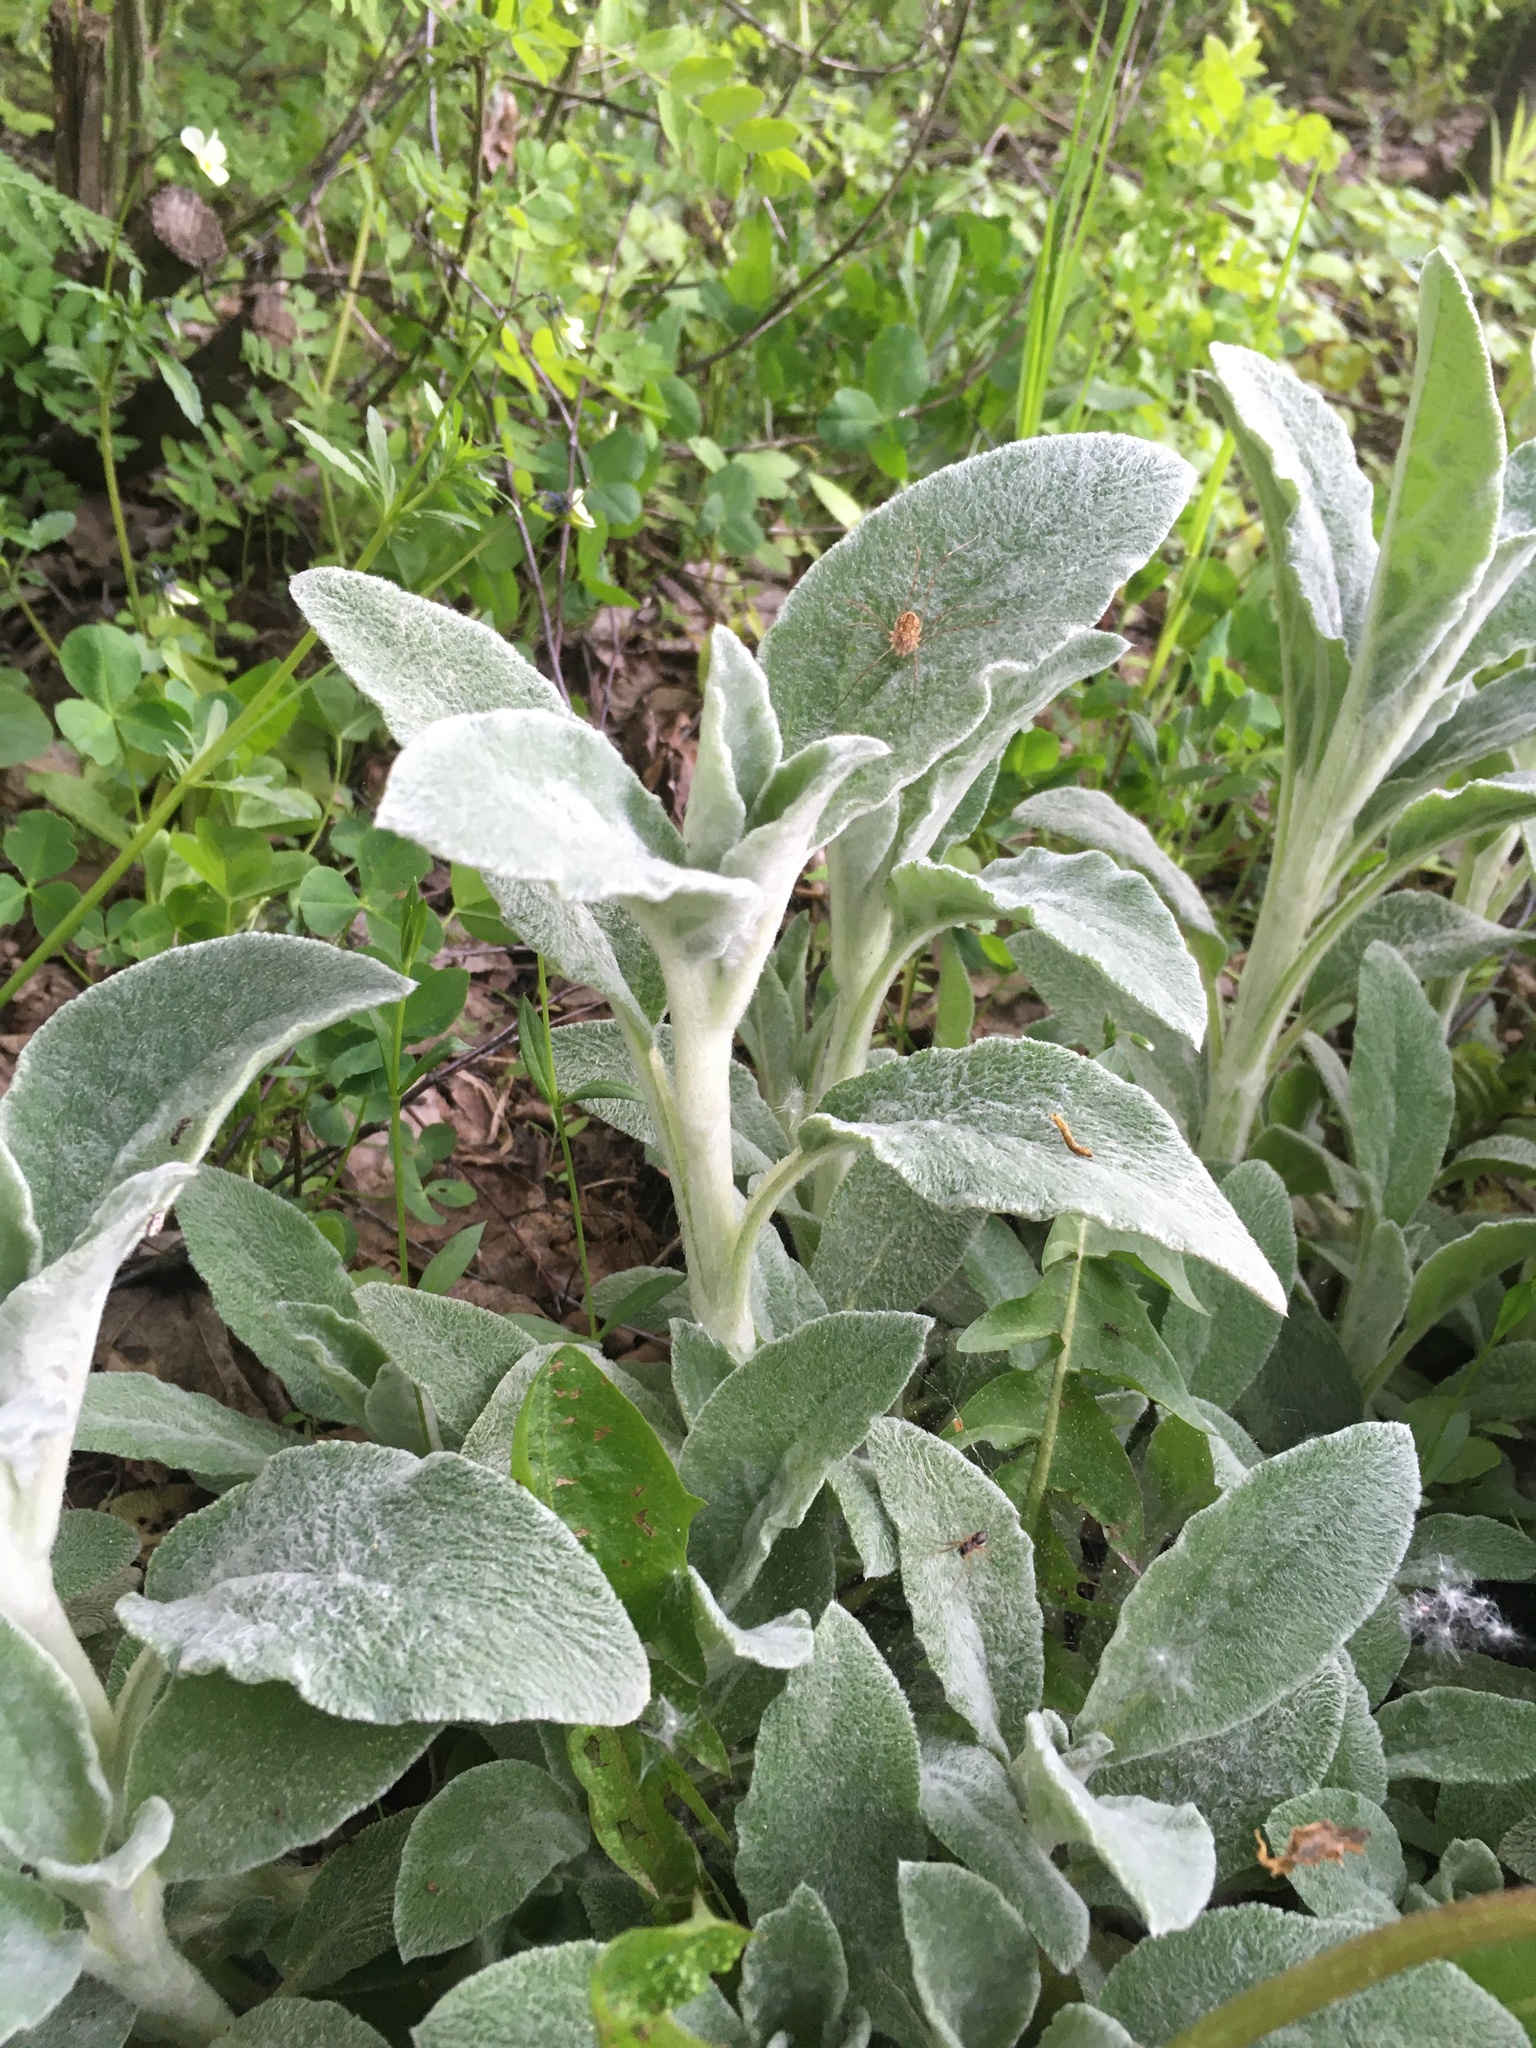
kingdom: Plantae
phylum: Tracheophyta
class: Magnoliopsida
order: Lamiales
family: Lamiaceae
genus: Stachys
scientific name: Stachys byzantina
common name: Lamb's-ear
